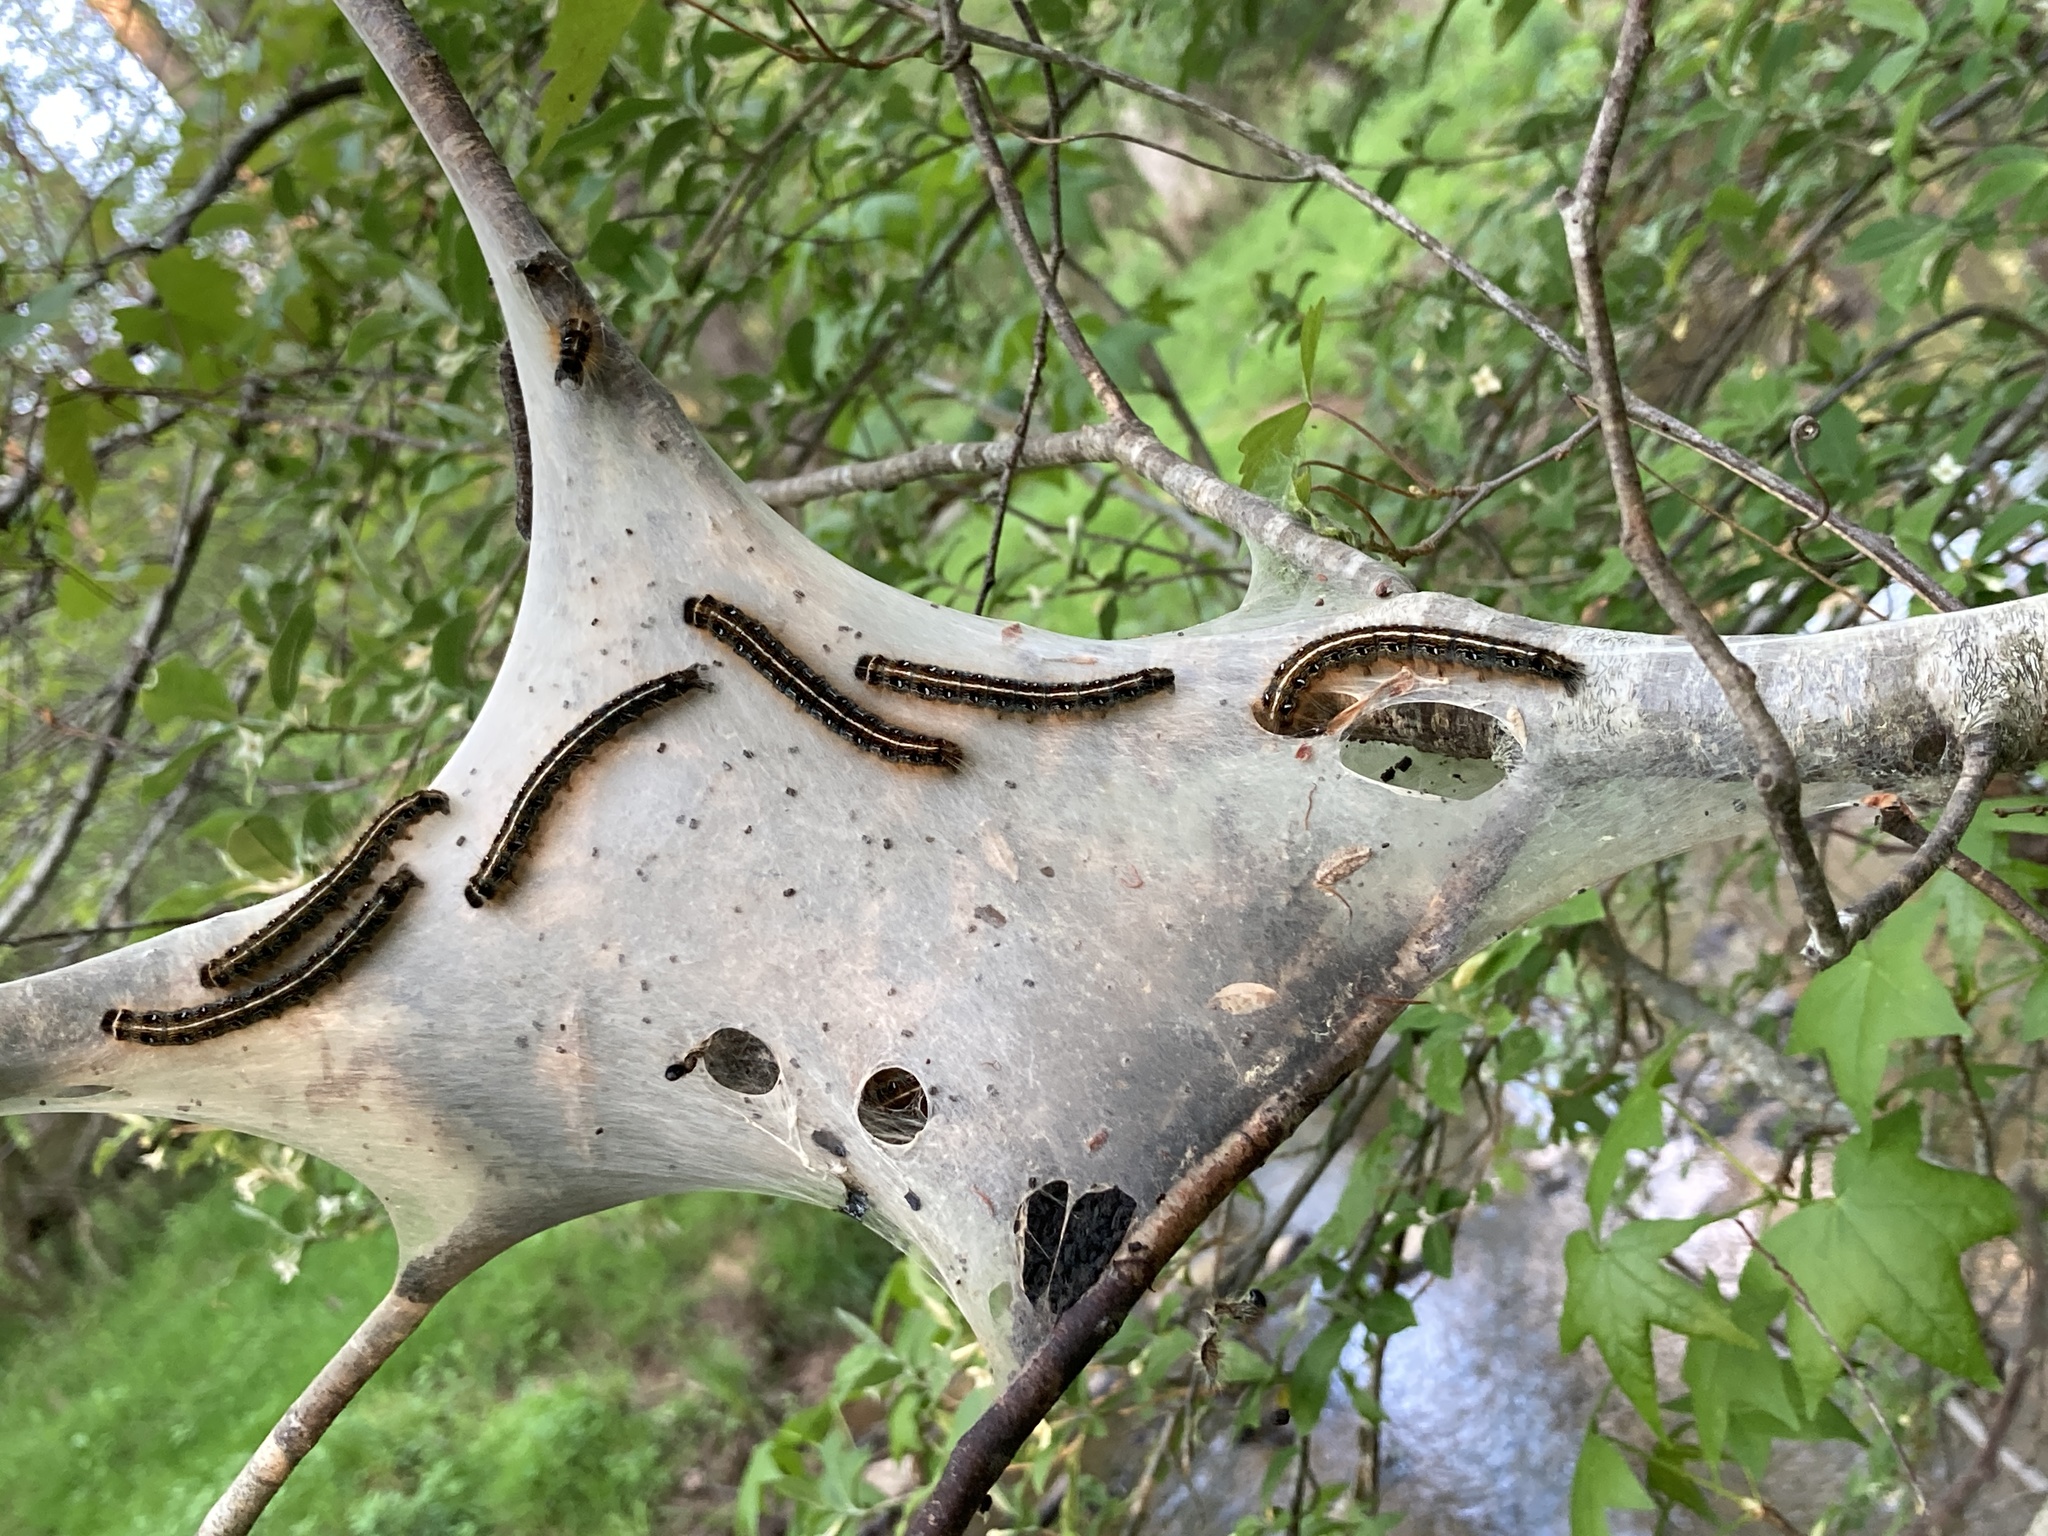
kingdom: Animalia
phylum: Arthropoda
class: Insecta
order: Lepidoptera
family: Lasiocampidae
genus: Malacosoma
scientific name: Malacosoma americana
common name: Eastern tent caterpillar moth
